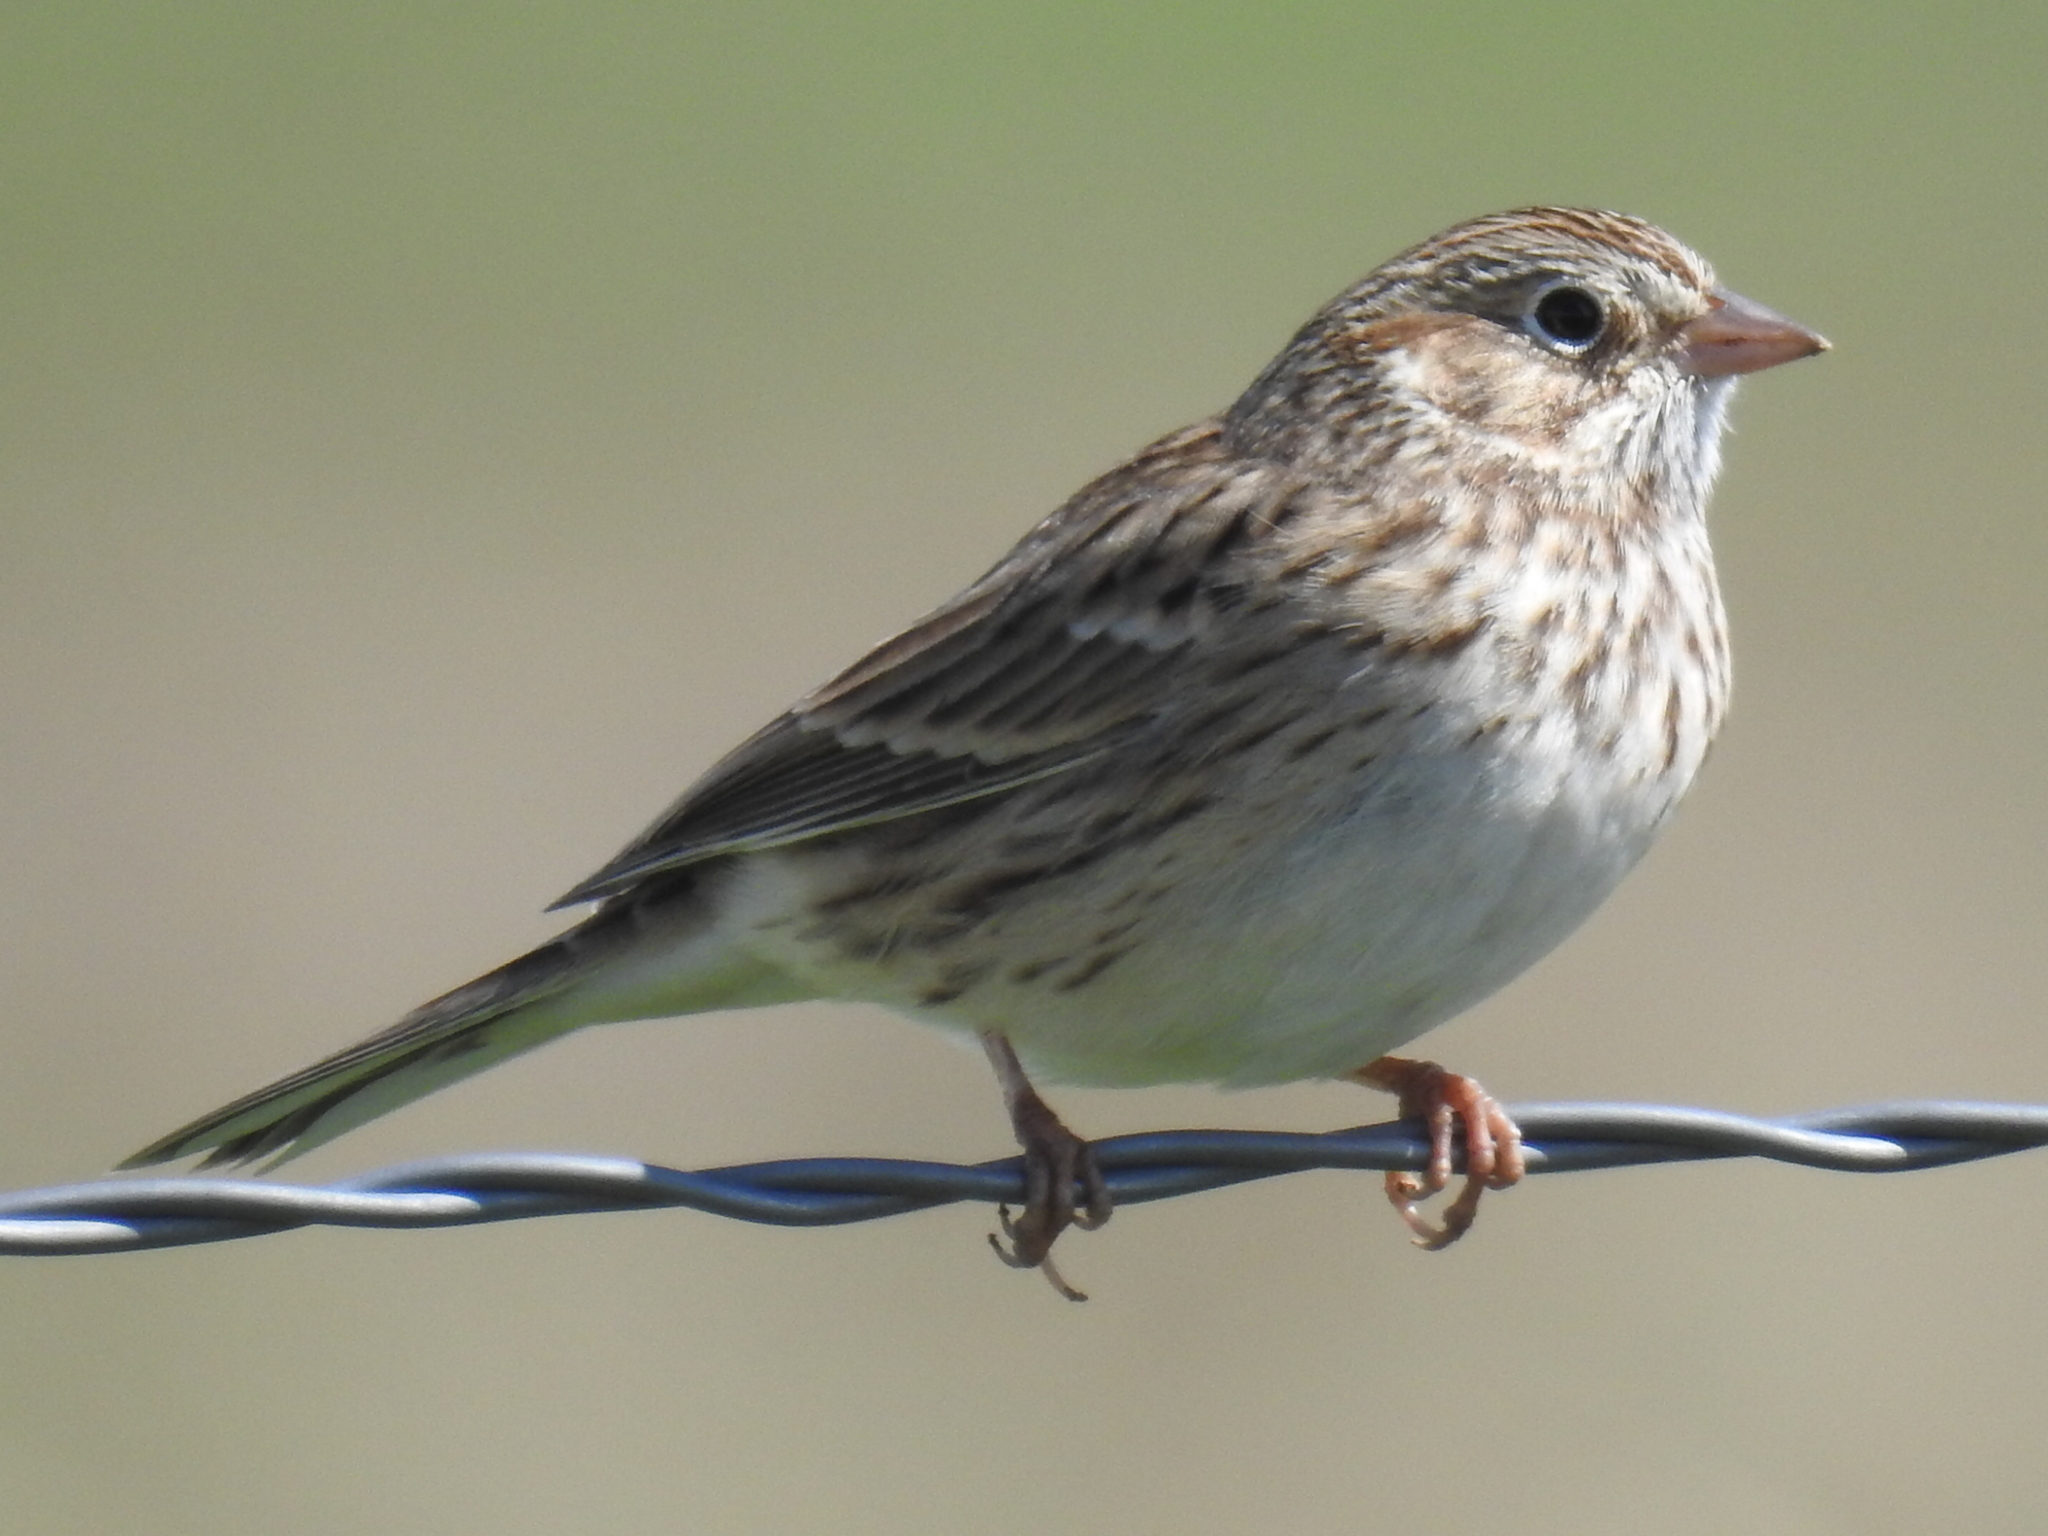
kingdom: Animalia
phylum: Chordata
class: Aves
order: Passeriformes
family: Passerellidae
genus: Pooecetes
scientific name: Pooecetes gramineus
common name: Vesper sparrow
